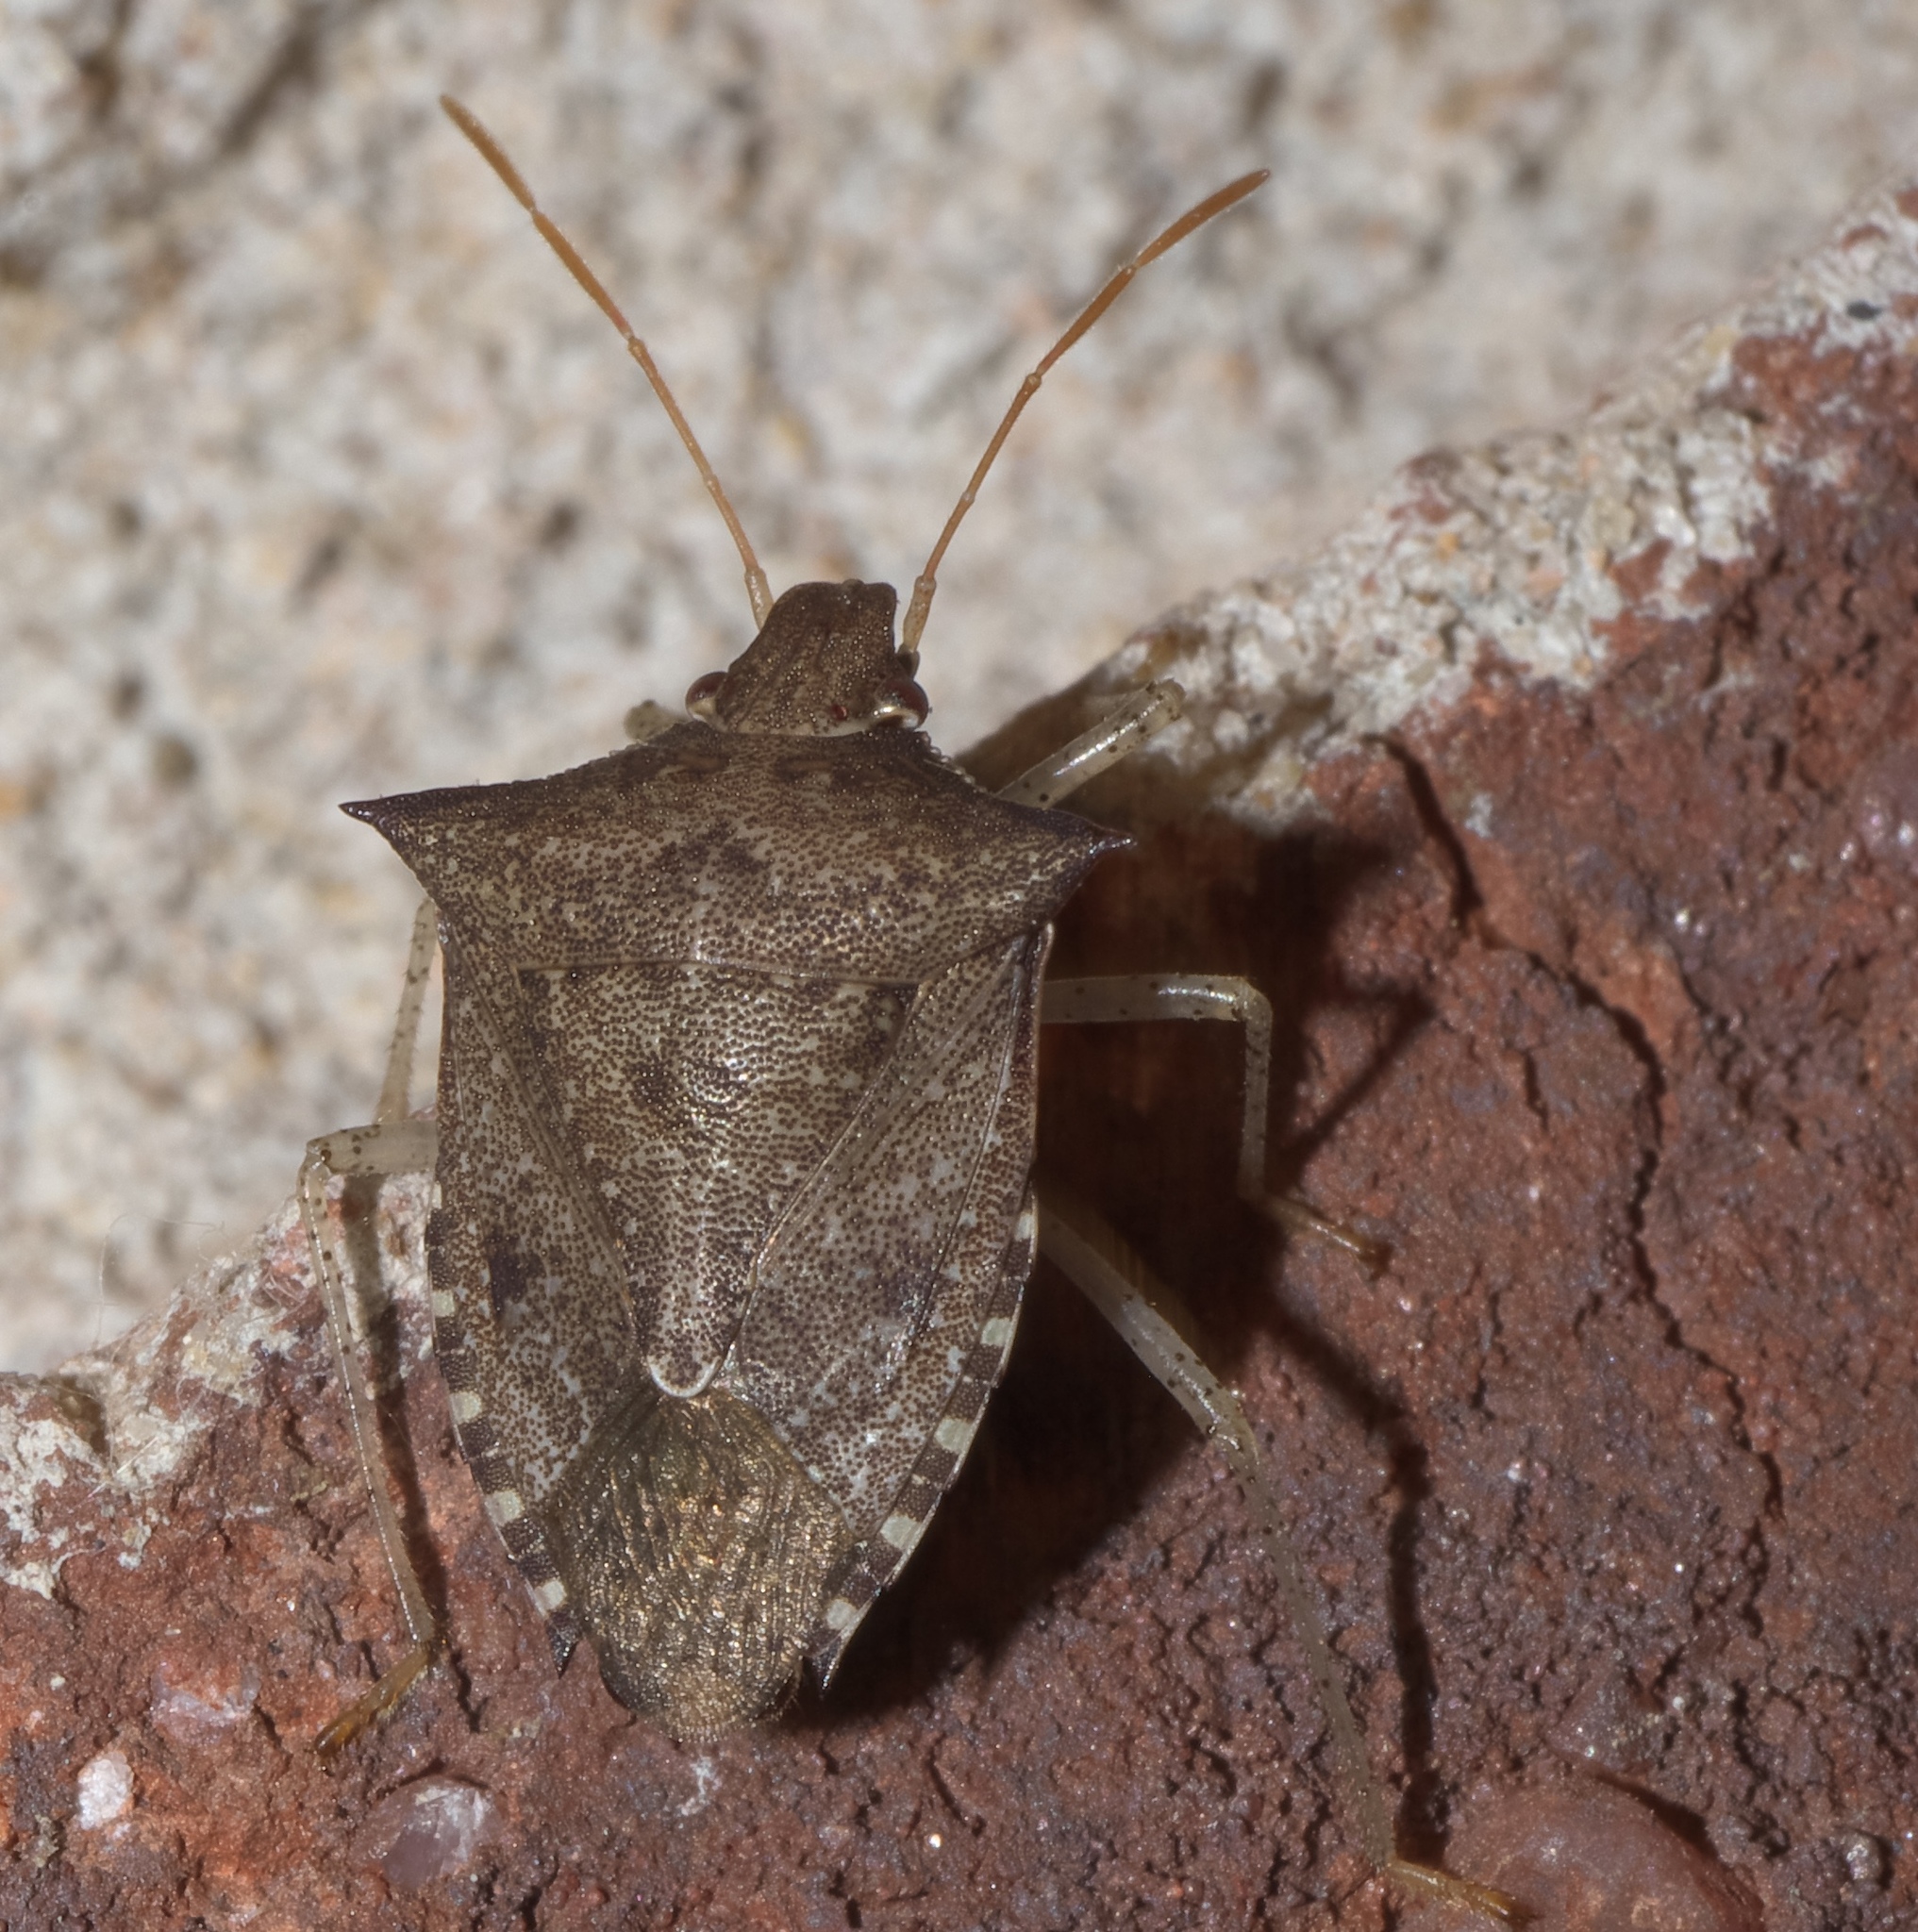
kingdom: Animalia
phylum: Arthropoda
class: Insecta
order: Hemiptera
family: Pentatomidae
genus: Euschistus
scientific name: Euschistus tristigmus
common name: Dusky stink bug
